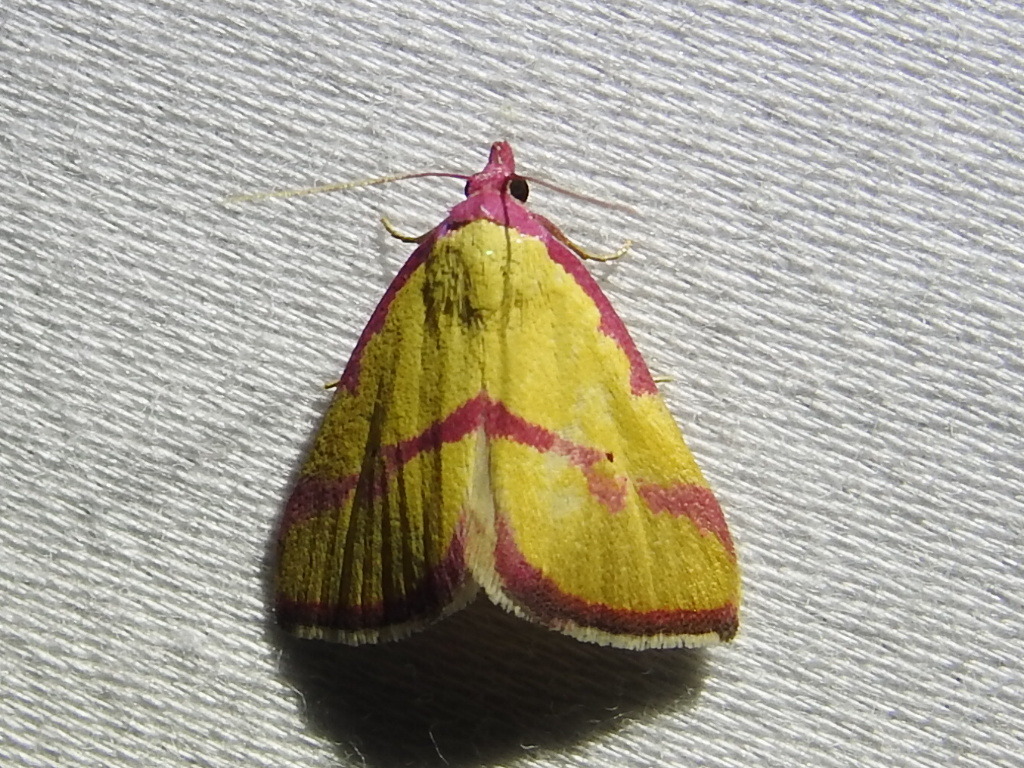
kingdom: Animalia
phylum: Arthropoda
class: Insecta
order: Lepidoptera
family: Erebidae
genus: Phytometra
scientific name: Phytometra ernestinana
